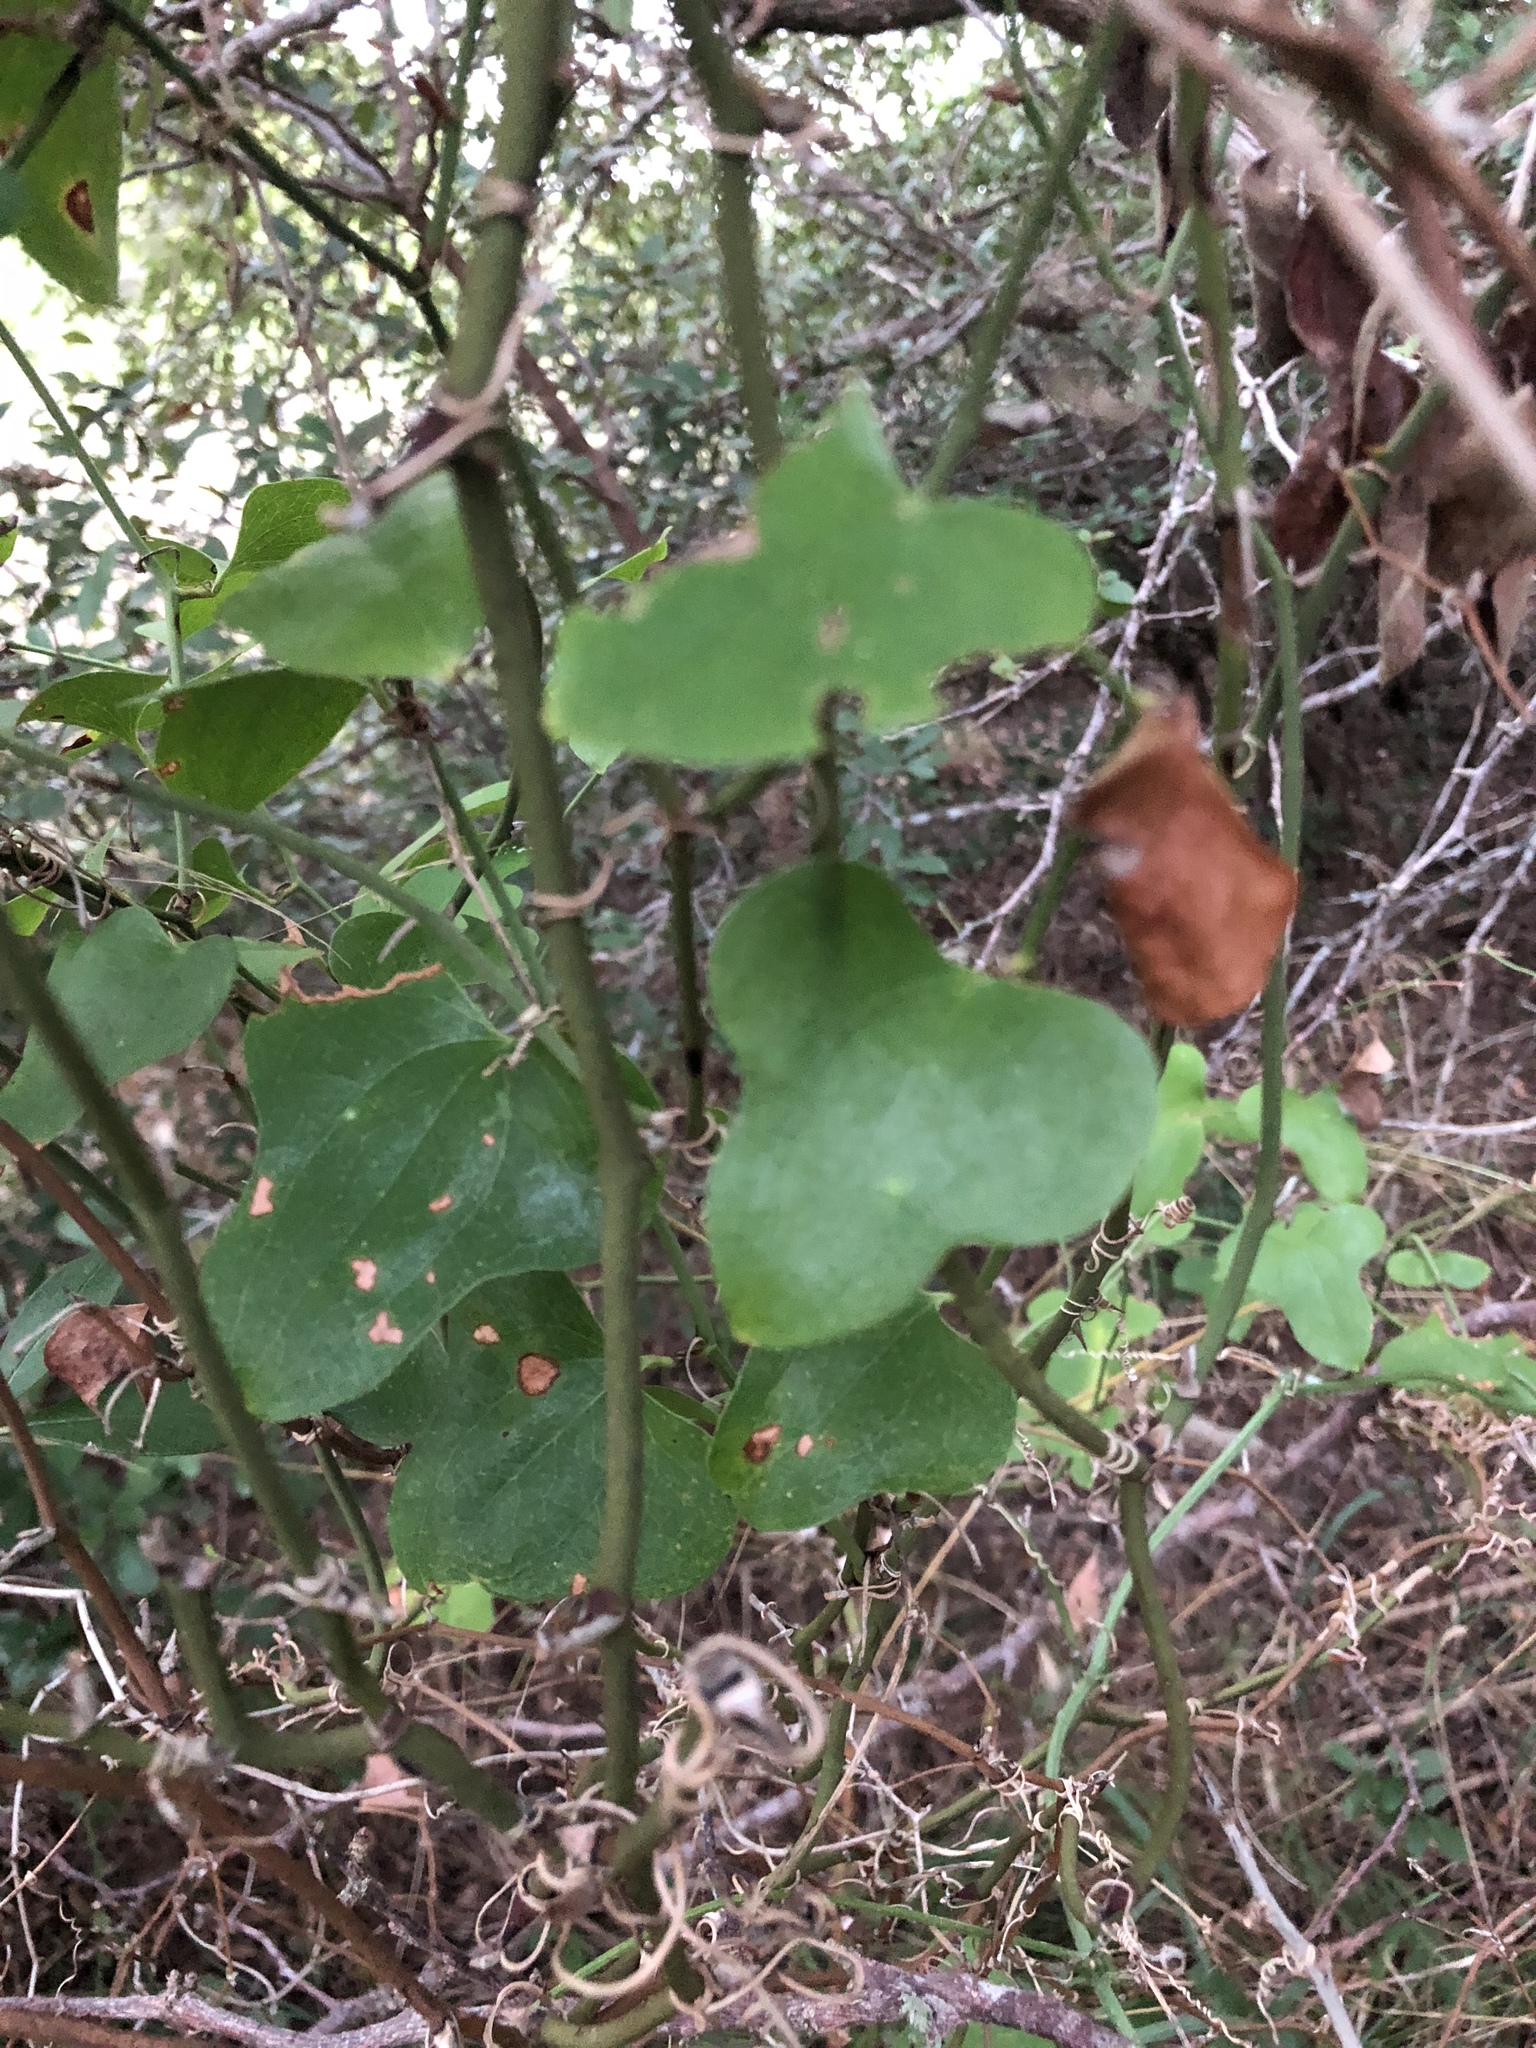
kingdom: Plantae
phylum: Tracheophyta
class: Magnoliopsida
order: Cucurbitales
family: Cucurbitaceae
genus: Ibervillea
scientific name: Ibervillea lindheimeri
